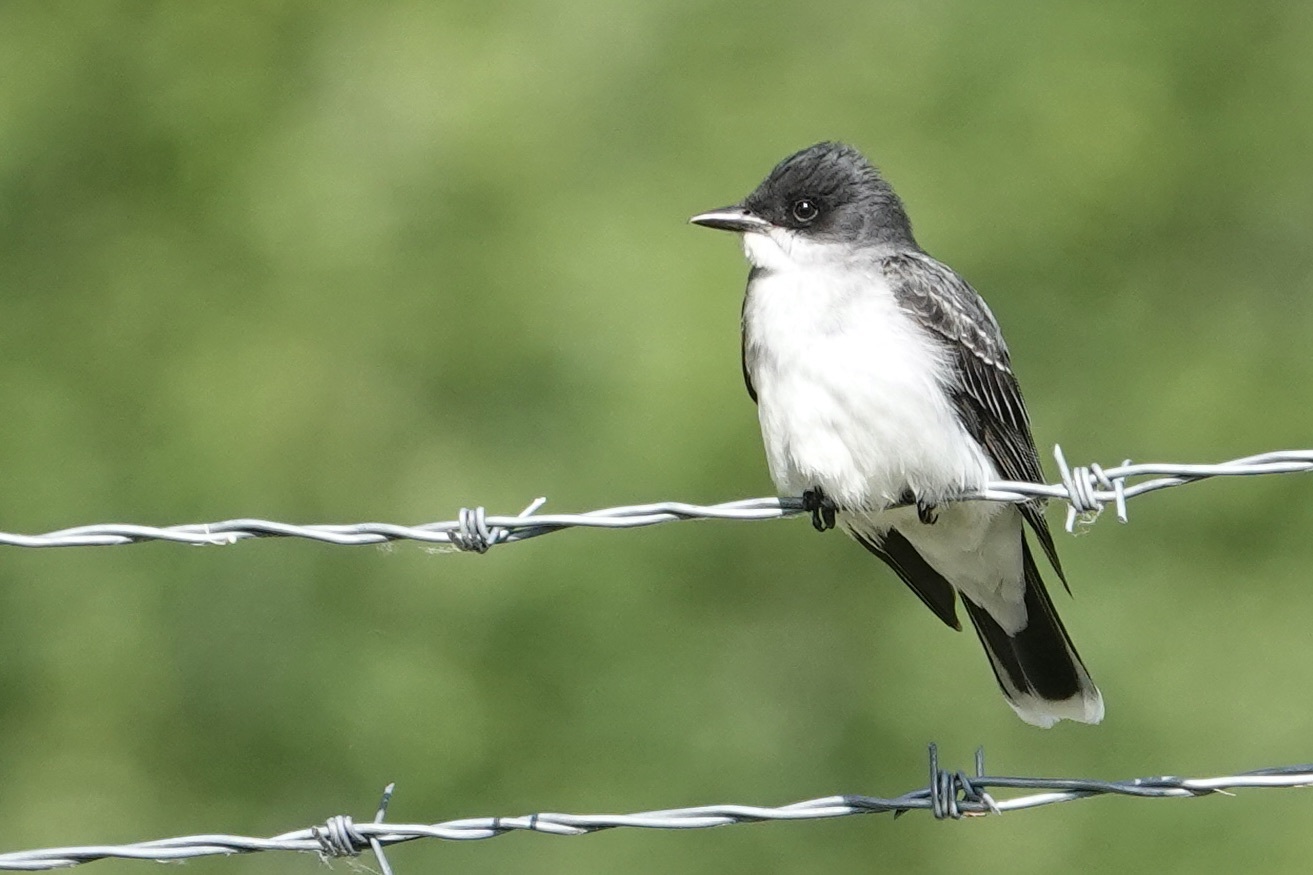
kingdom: Animalia
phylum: Chordata
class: Aves
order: Passeriformes
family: Tyrannidae
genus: Tyrannus
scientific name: Tyrannus tyrannus
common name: Eastern kingbird
